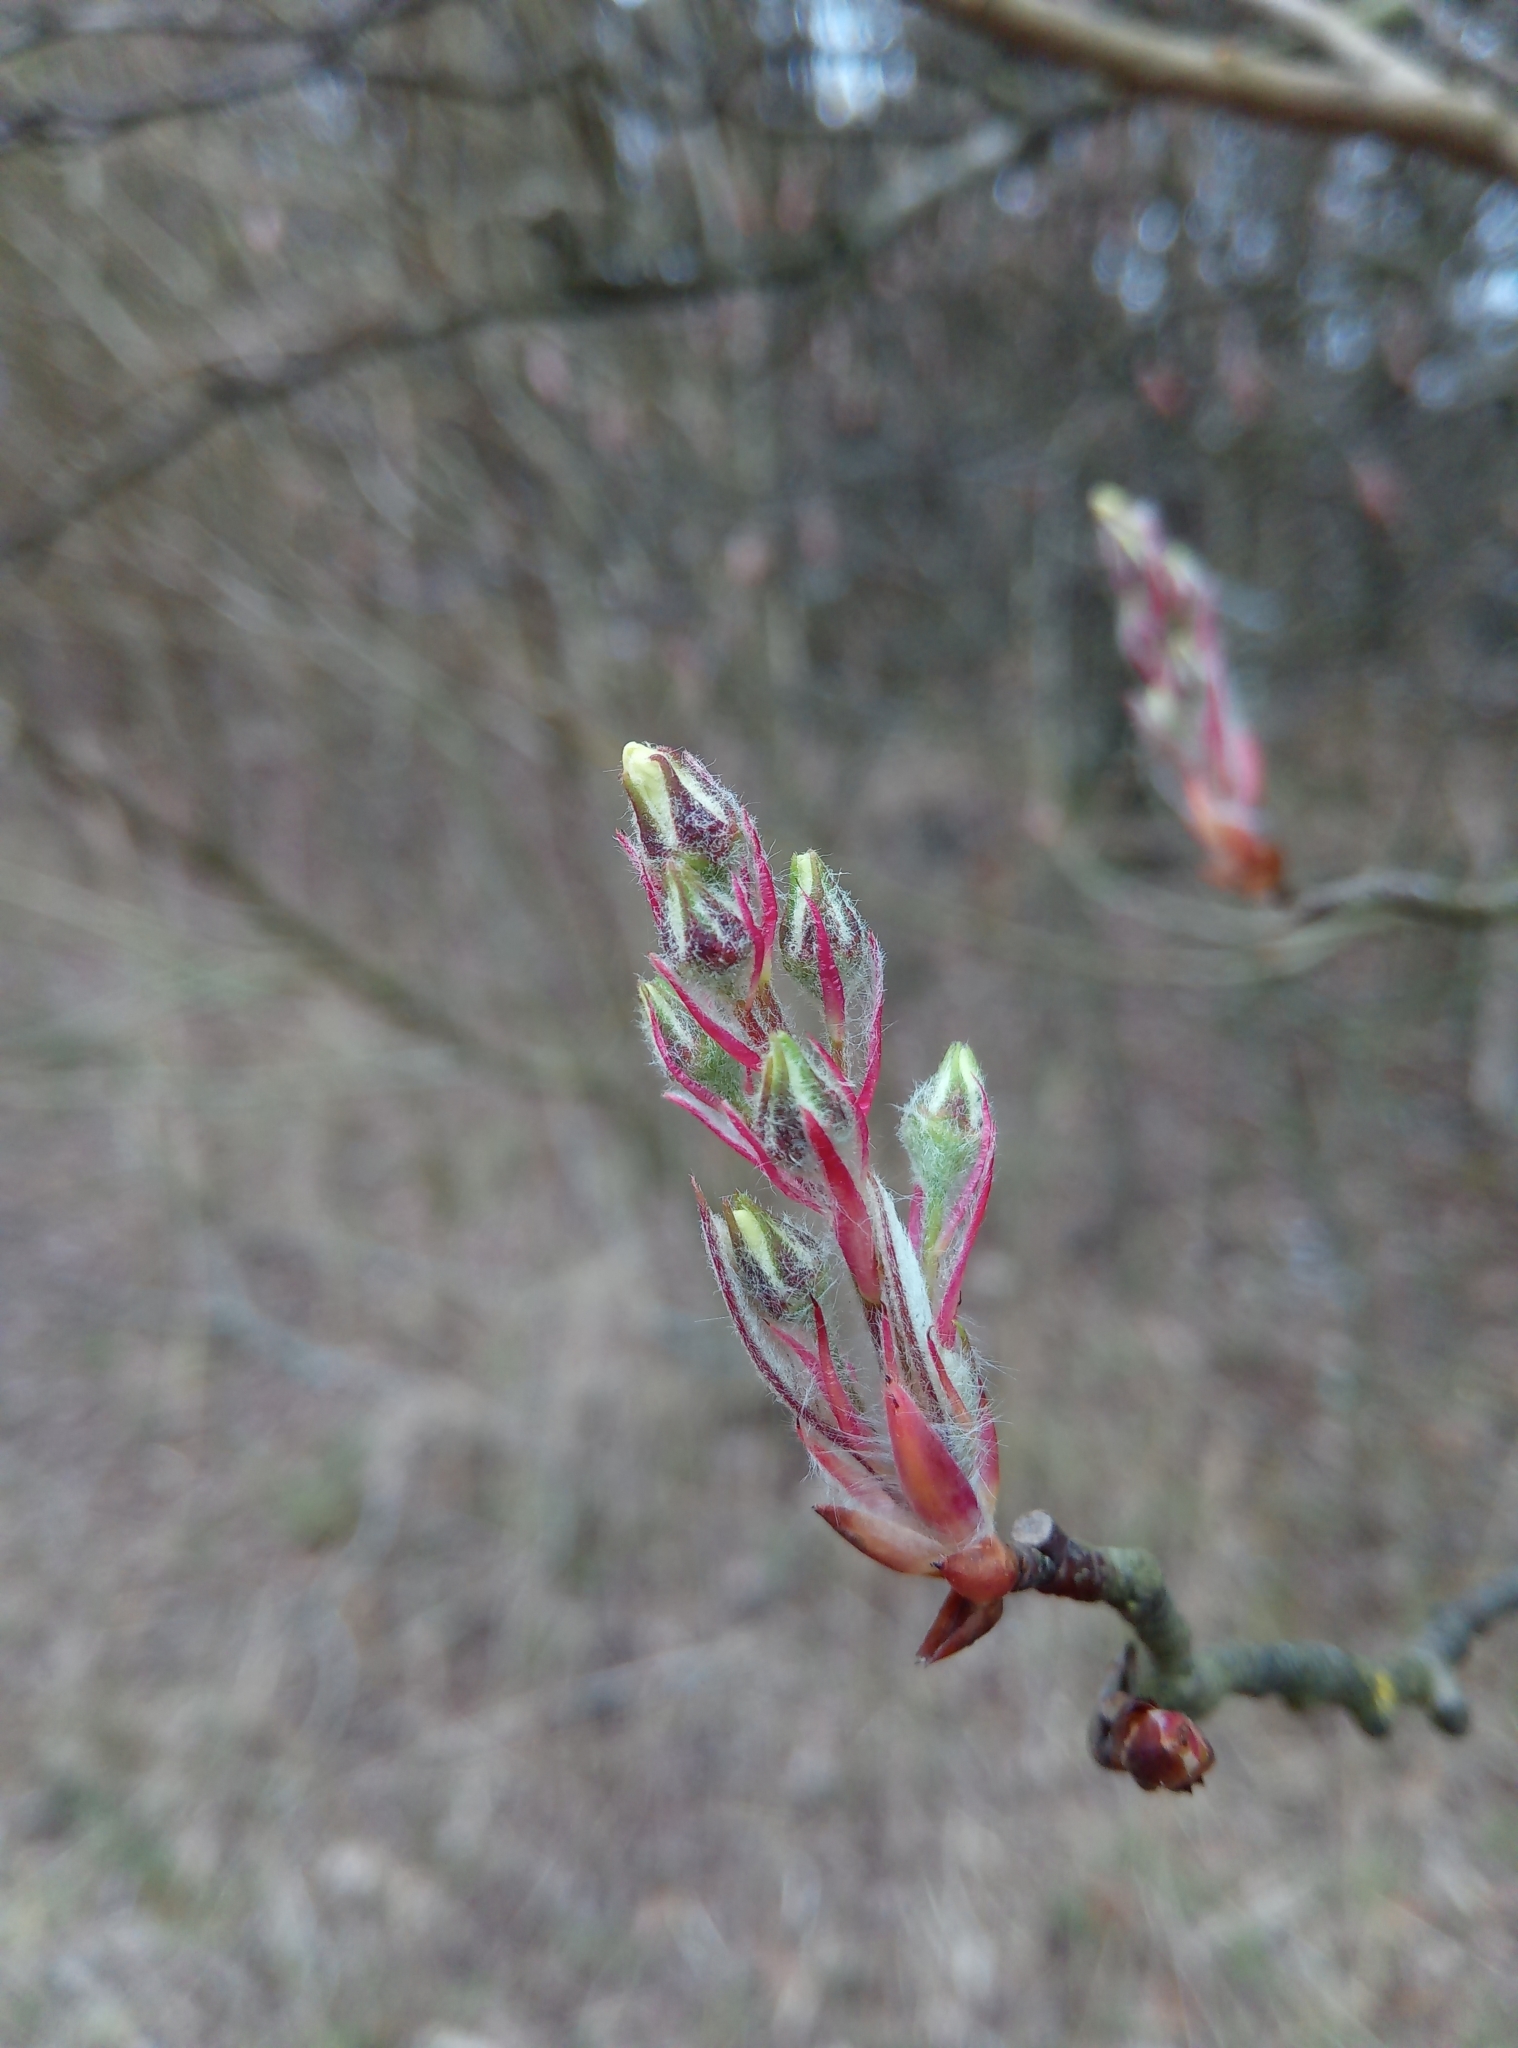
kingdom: Plantae
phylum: Tracheophyta
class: Magnoliopsida
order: Rosales
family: Rosaceae
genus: Amelanchier
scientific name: Amelanchier lamarckii
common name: Juneberry
